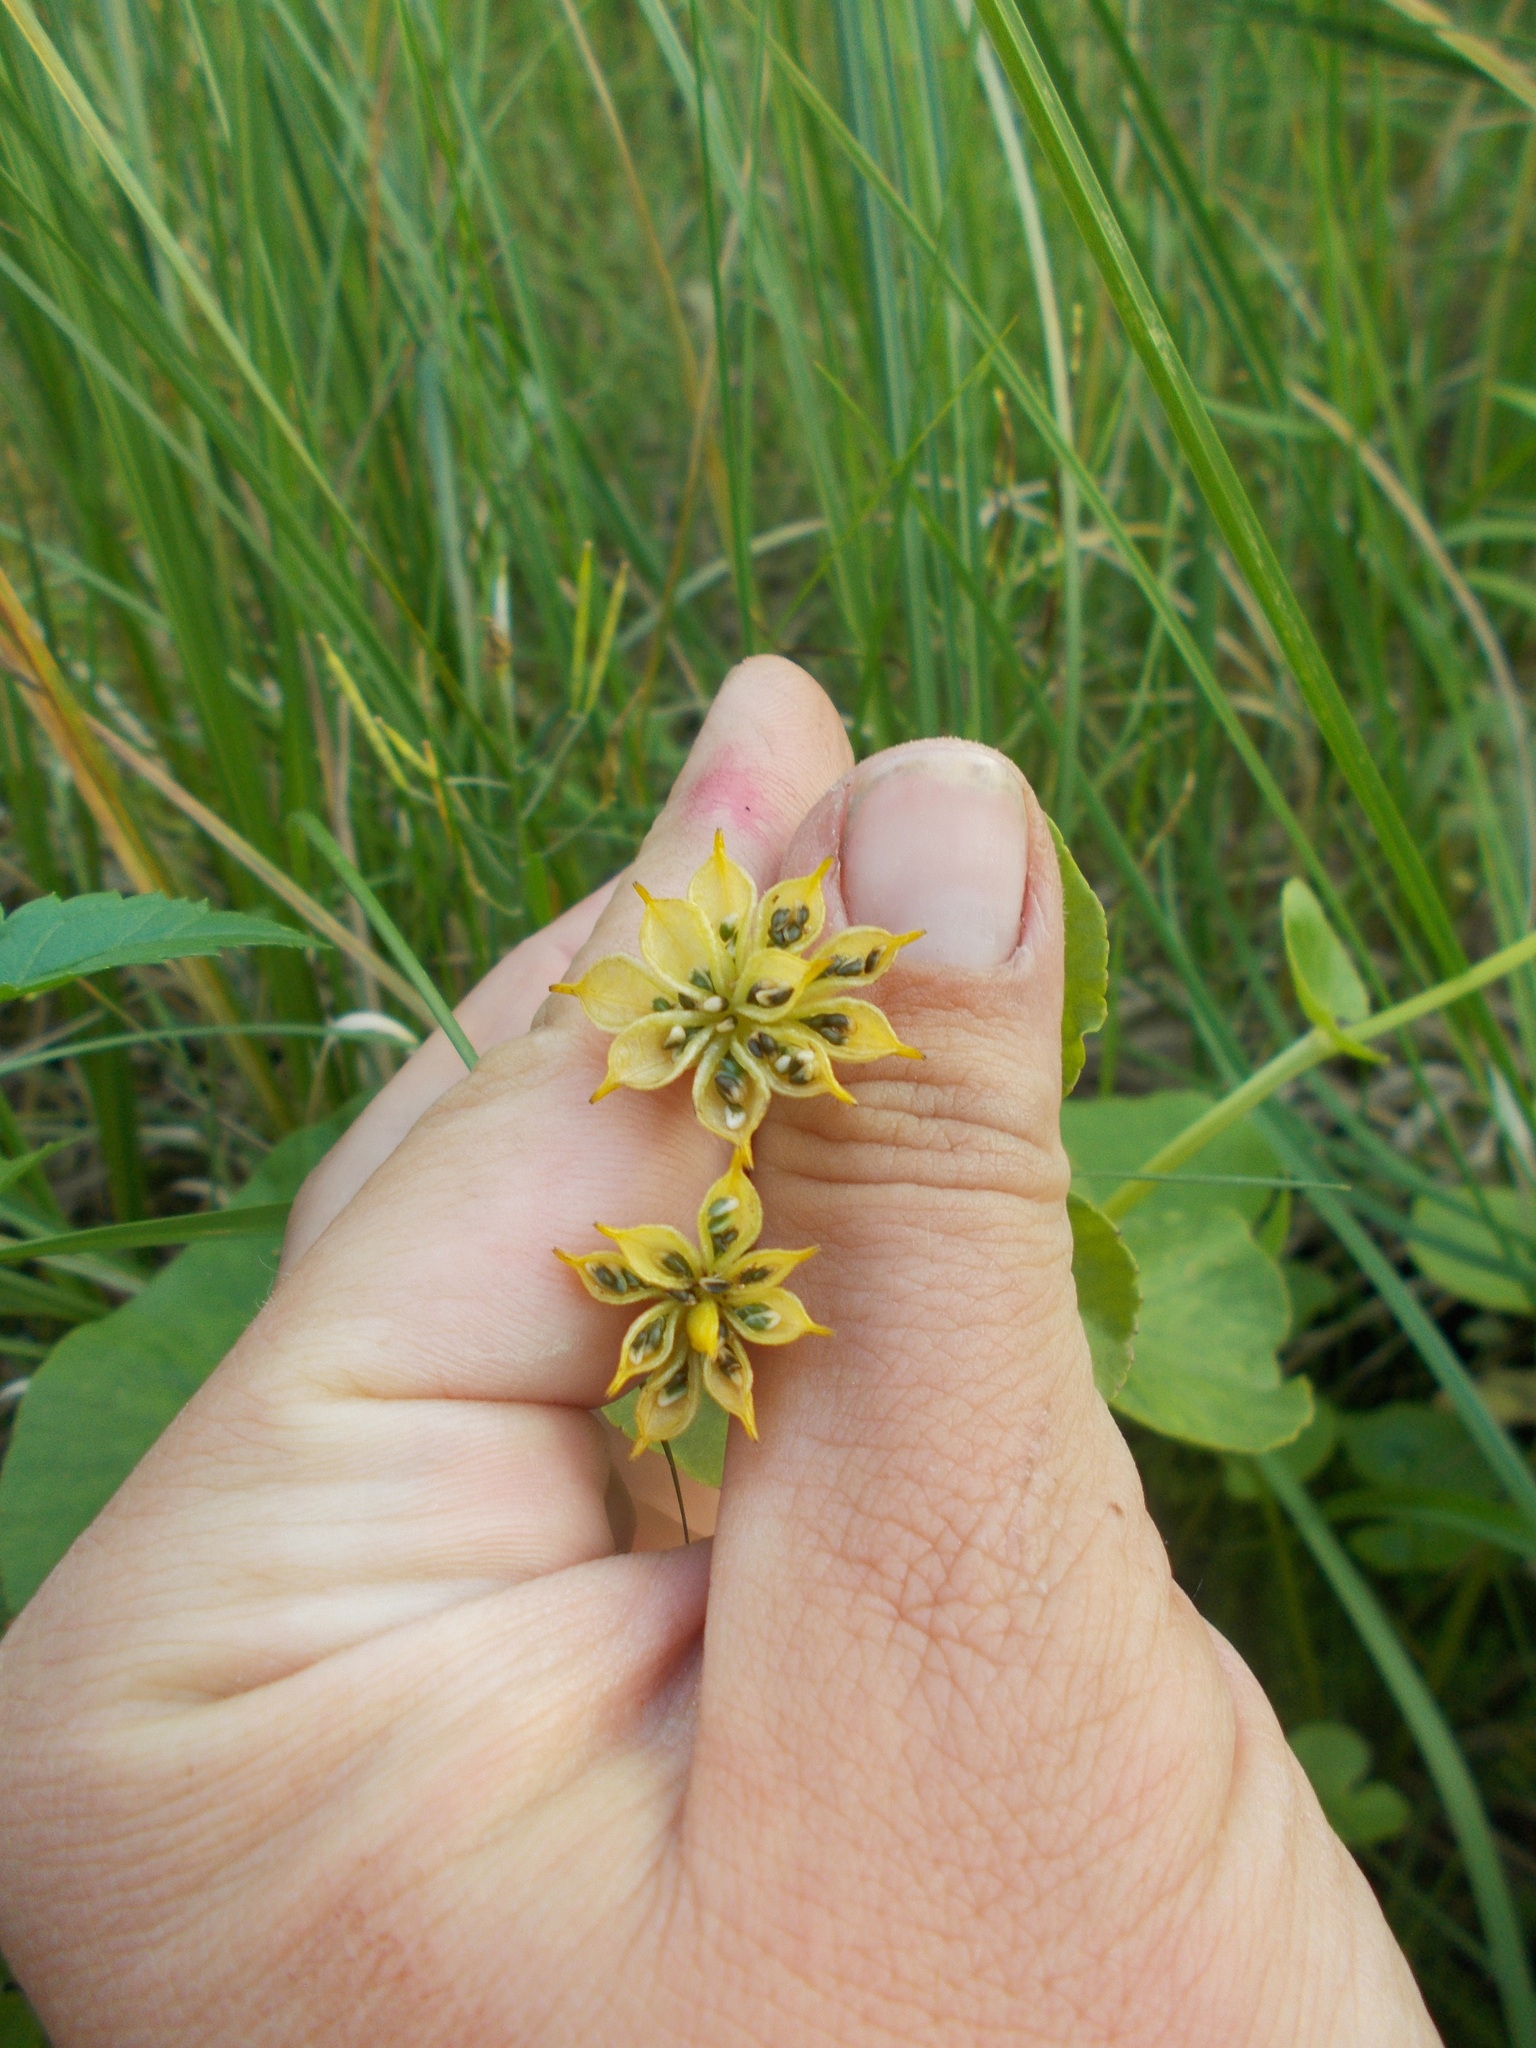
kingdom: Plantae
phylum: Tracheophyta
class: Magnoliopsida
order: Ranunculales
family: Ranunculaceae
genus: Caltha
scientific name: Caltha palustris
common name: Marsh marigold
